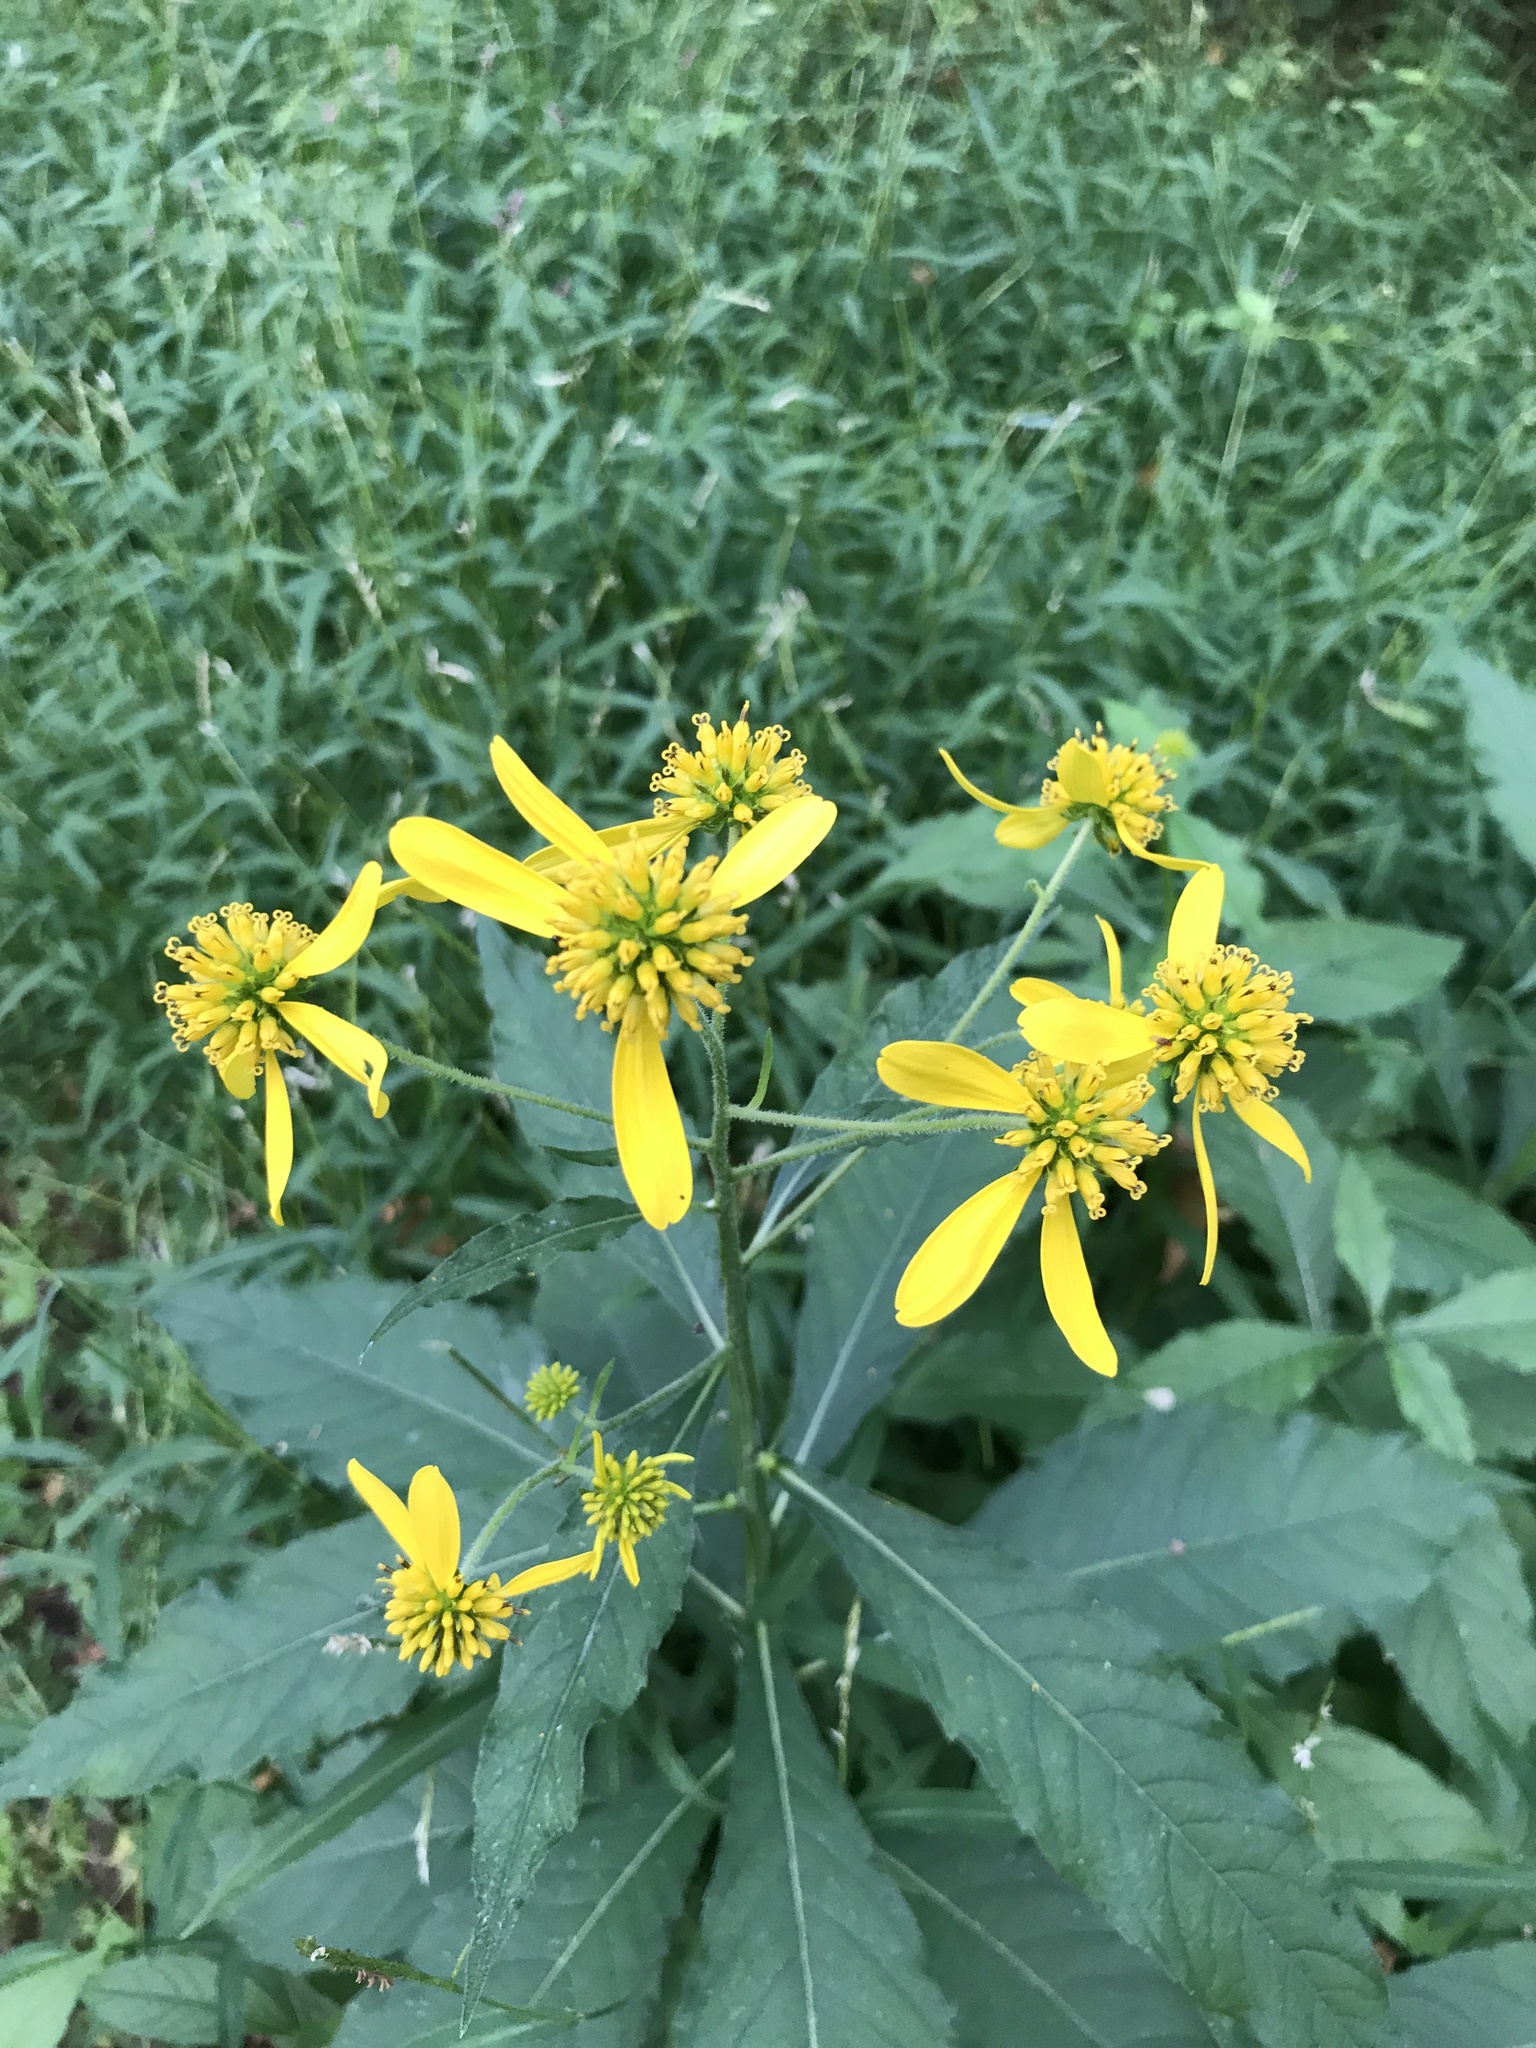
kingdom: Plantae
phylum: Tracheophyta
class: Magnoliopsida
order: Asterales
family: Asteraceae
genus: Verbesina
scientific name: Verbesina alternifolia
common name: Wingstem
